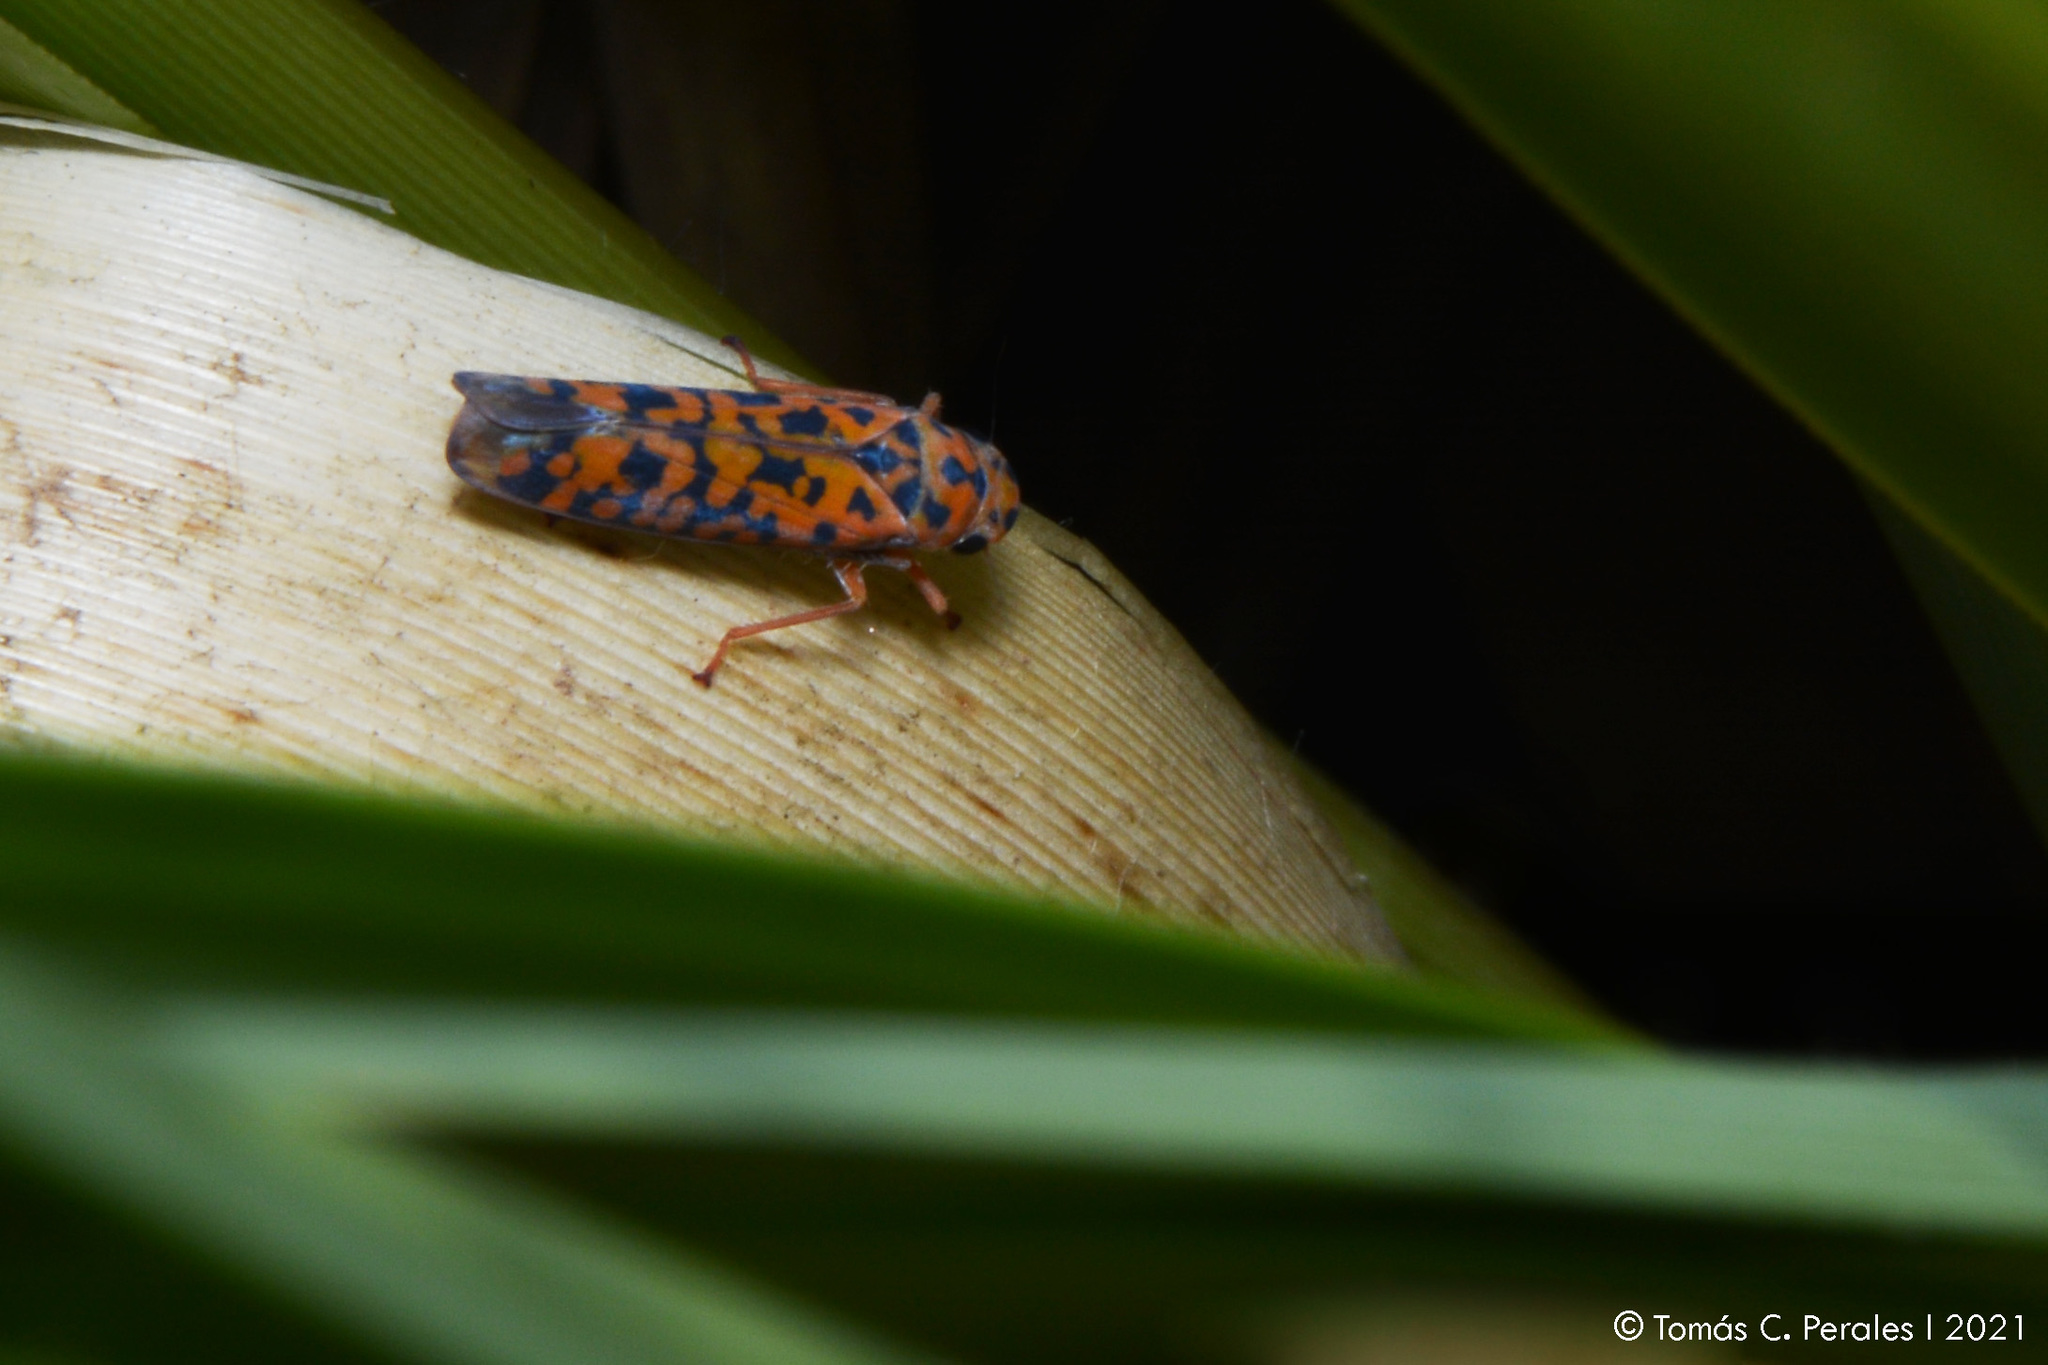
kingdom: Animalia
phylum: Arthropoda
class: Insecta
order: Hemiptera
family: Cicadellidae
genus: Pawiloma
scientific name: Pawiloma victima
